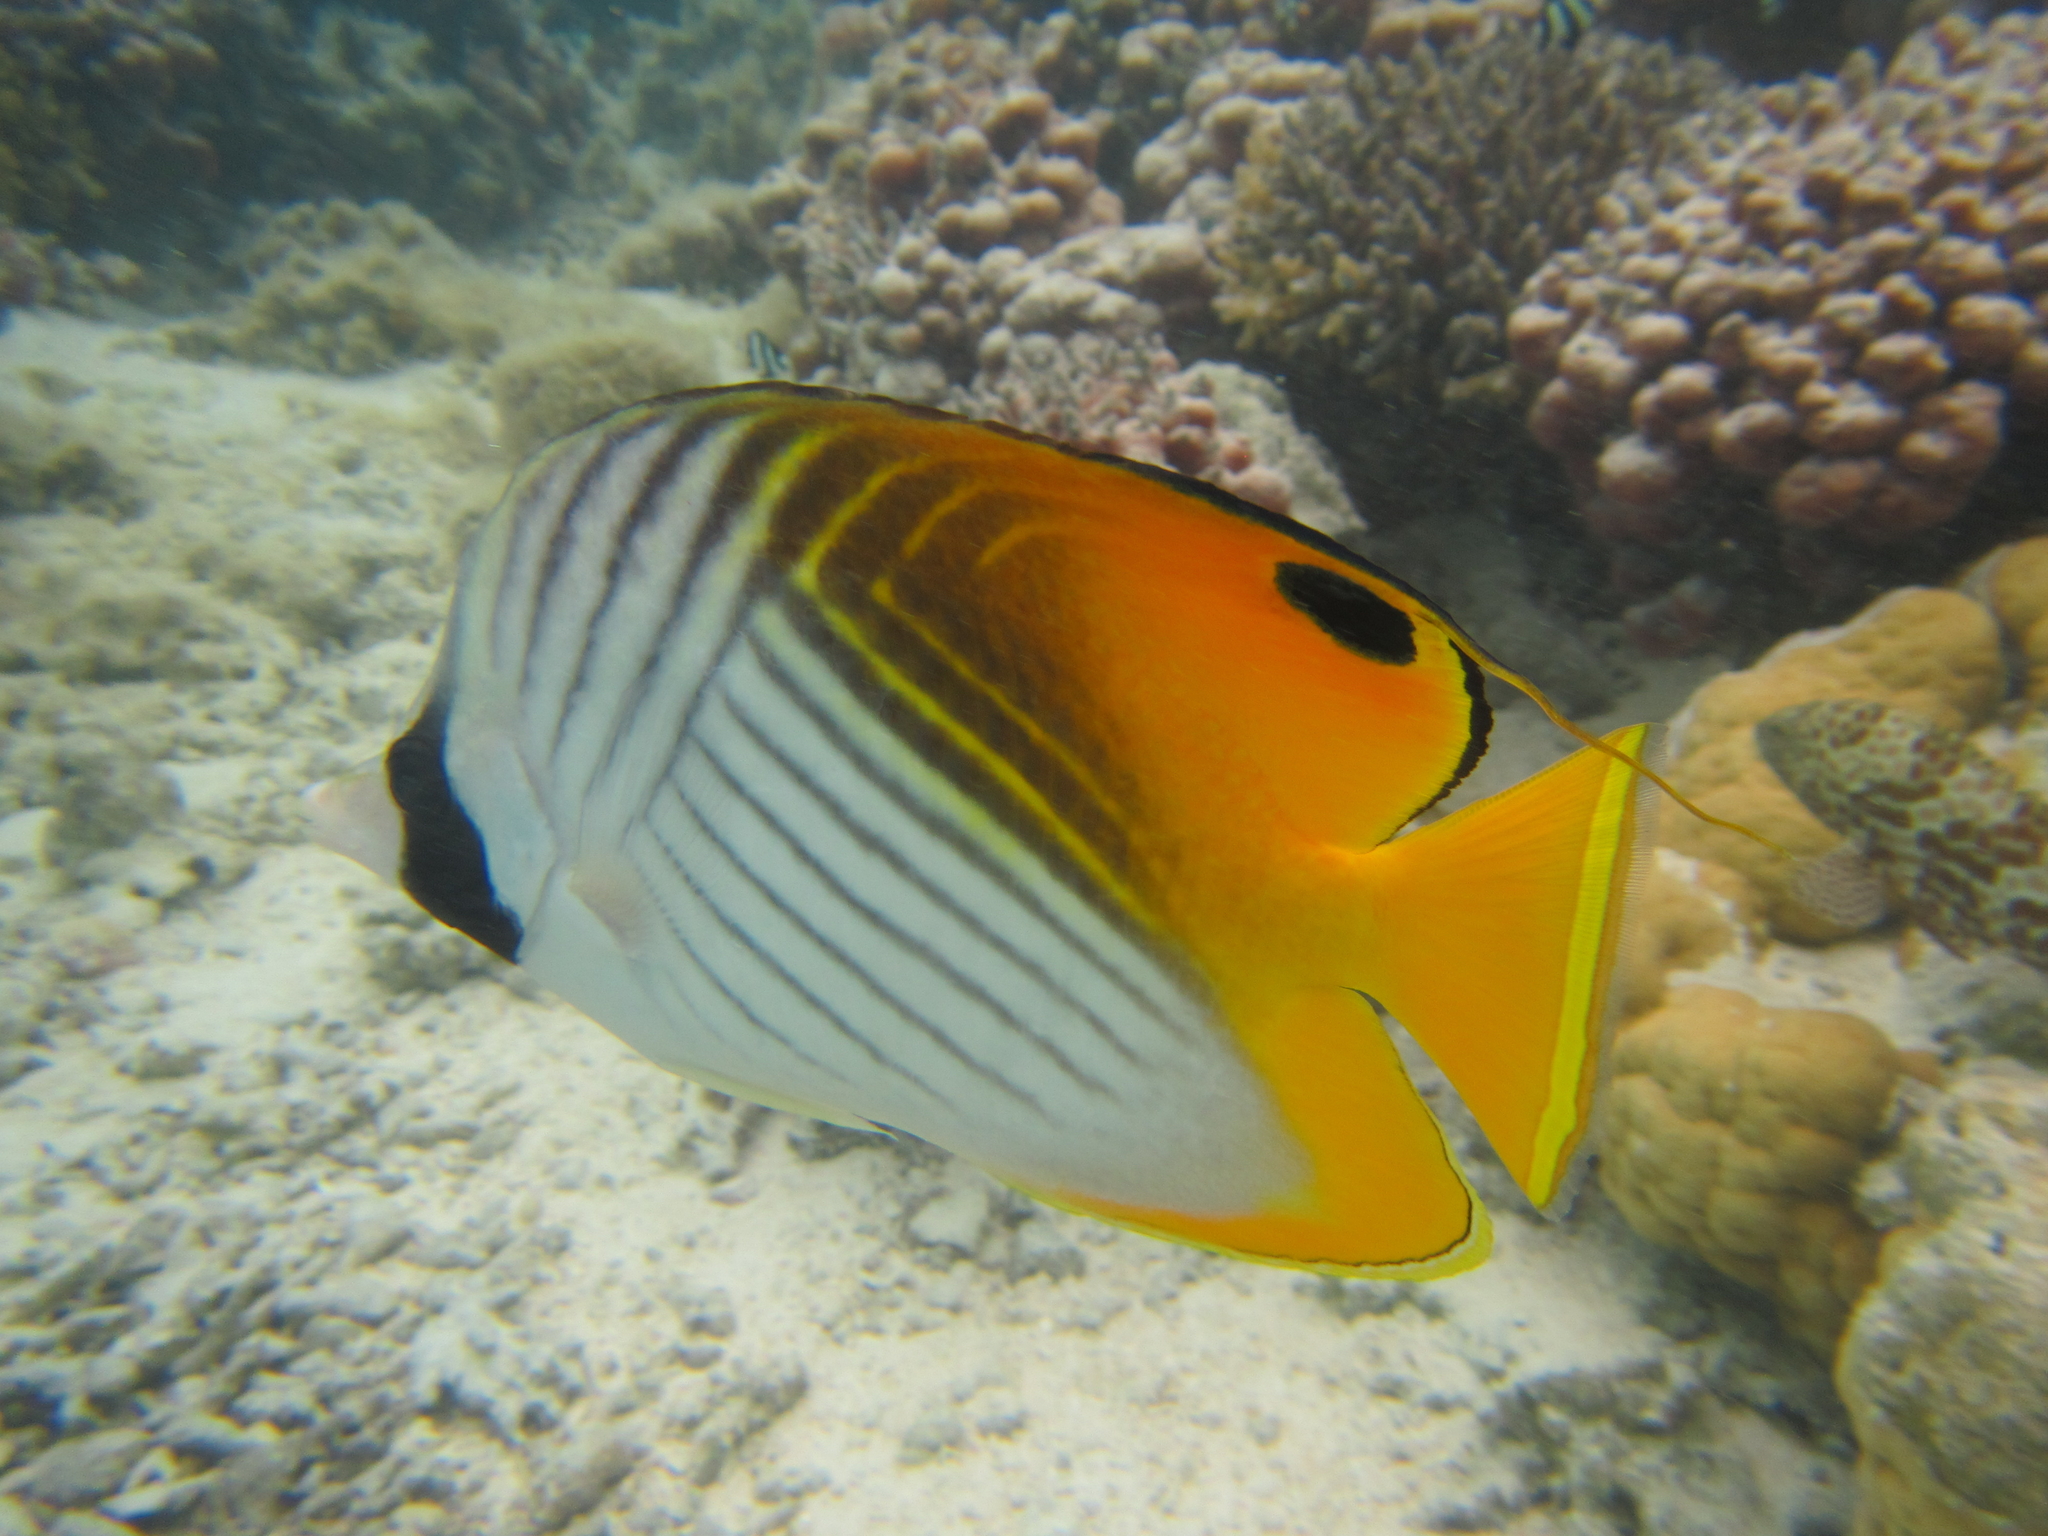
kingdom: Animalia
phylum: Chordata
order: Perciformes
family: Chaetodontidae
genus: Chaetodon
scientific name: Chaetodon auriga
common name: Threadfin butterflyfish
